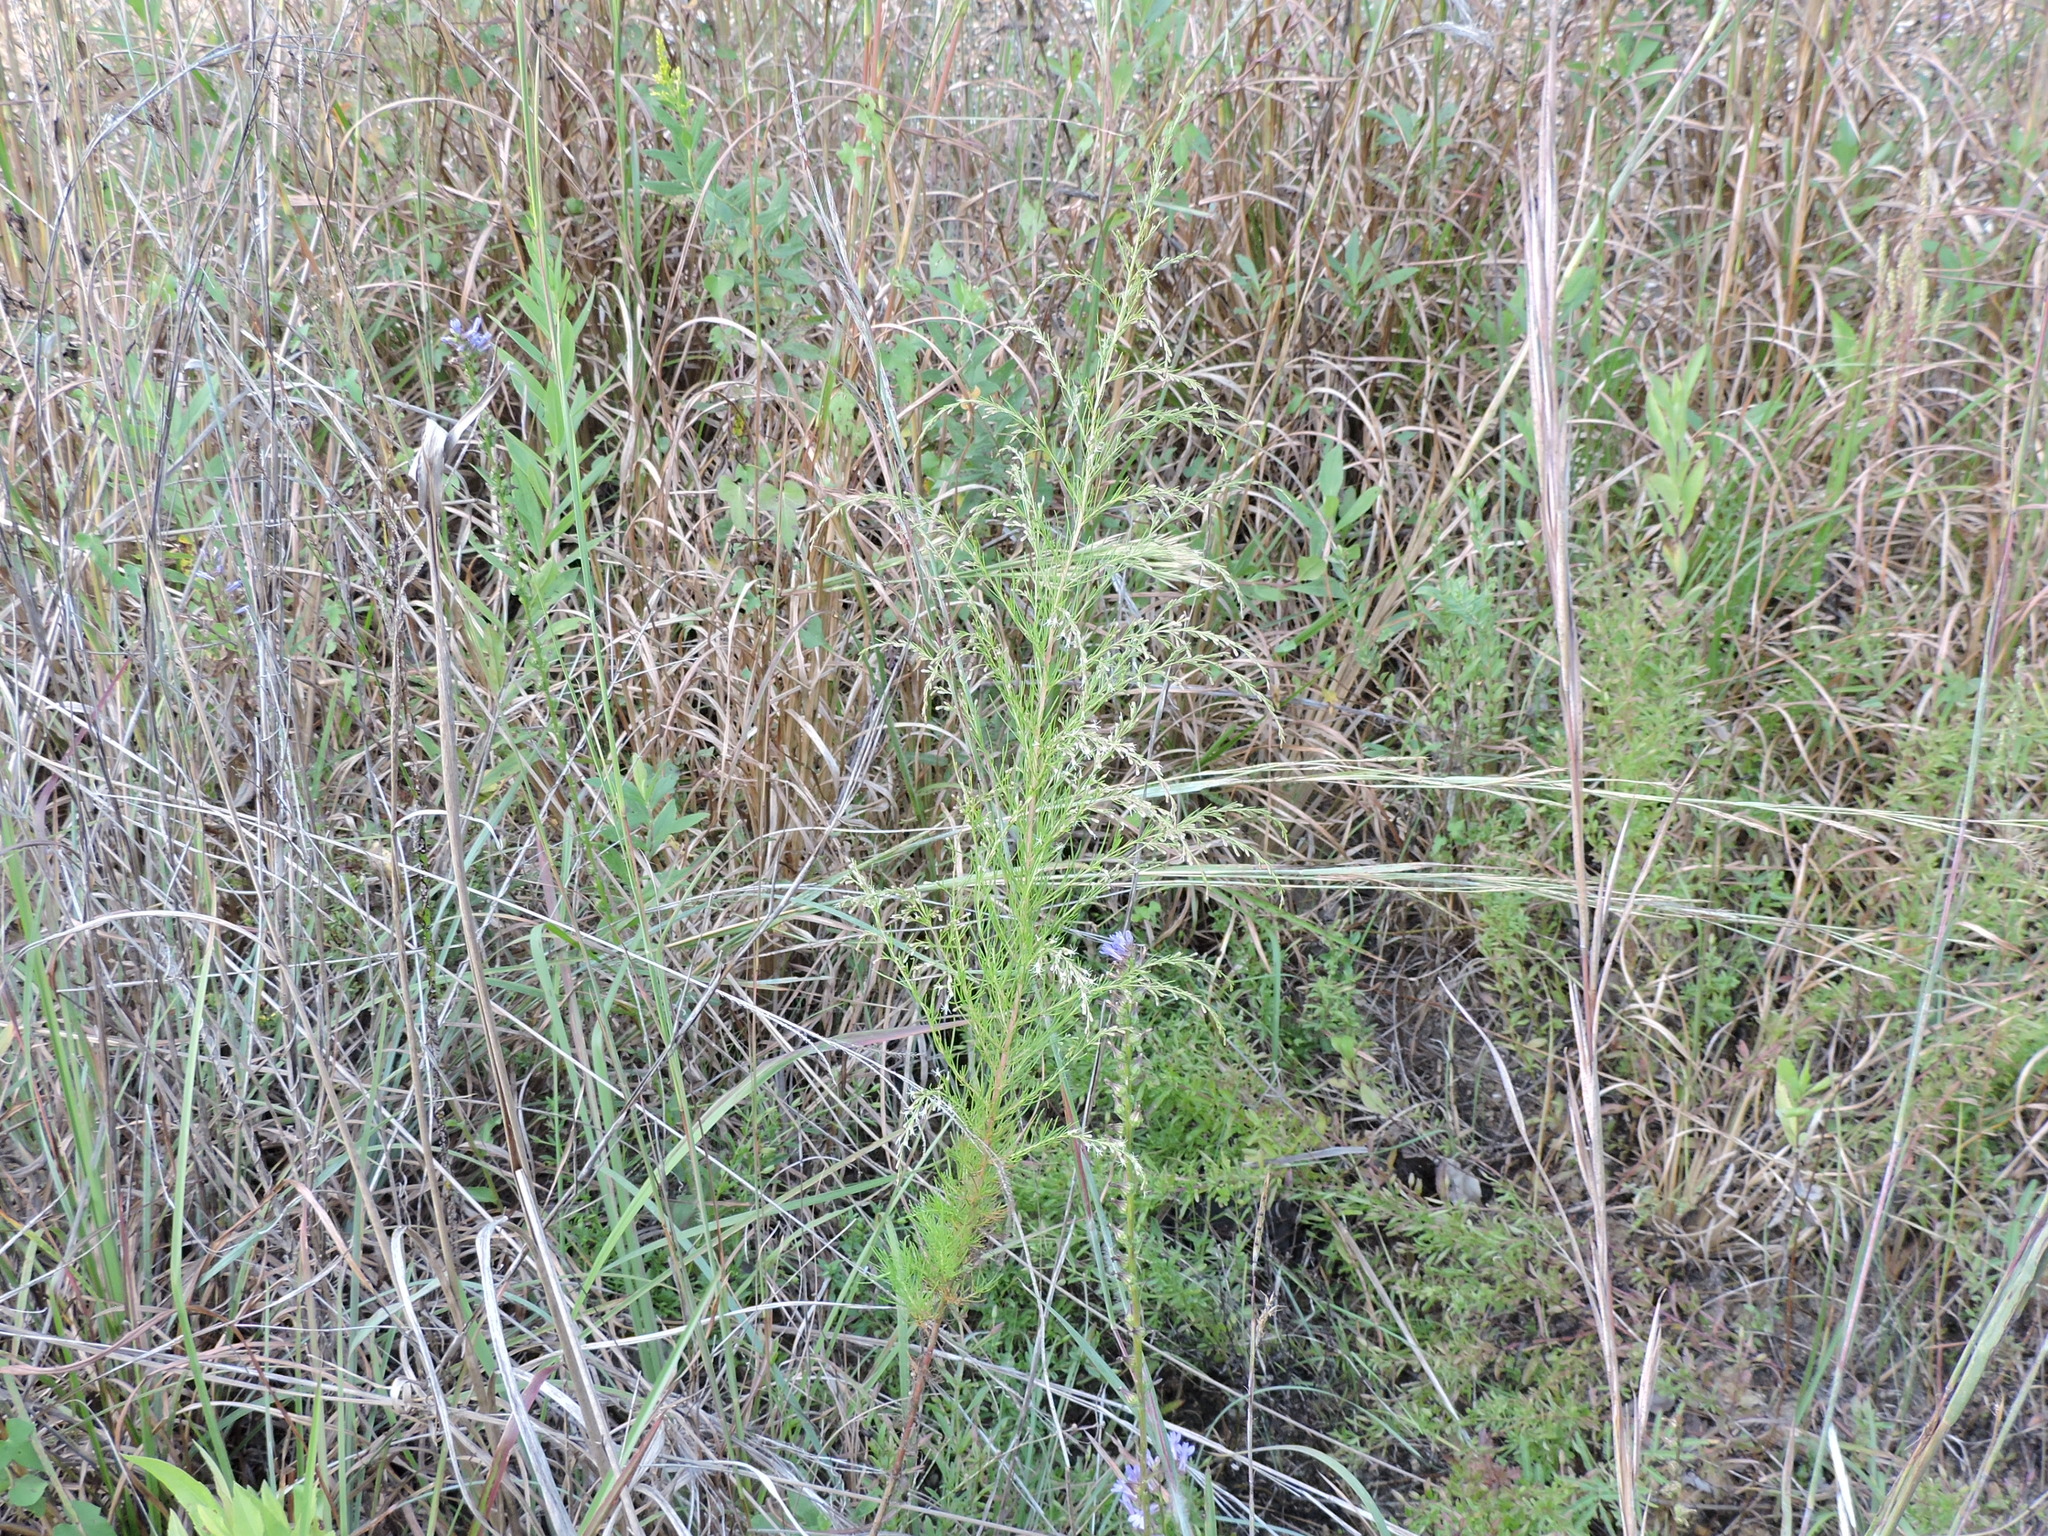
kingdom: Plantae
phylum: Tracheophyta
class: Magnoliopsida
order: Asterales
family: Asteraceae
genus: Eupatorium
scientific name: Eupatorium capillifolium
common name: Dog-fennel
